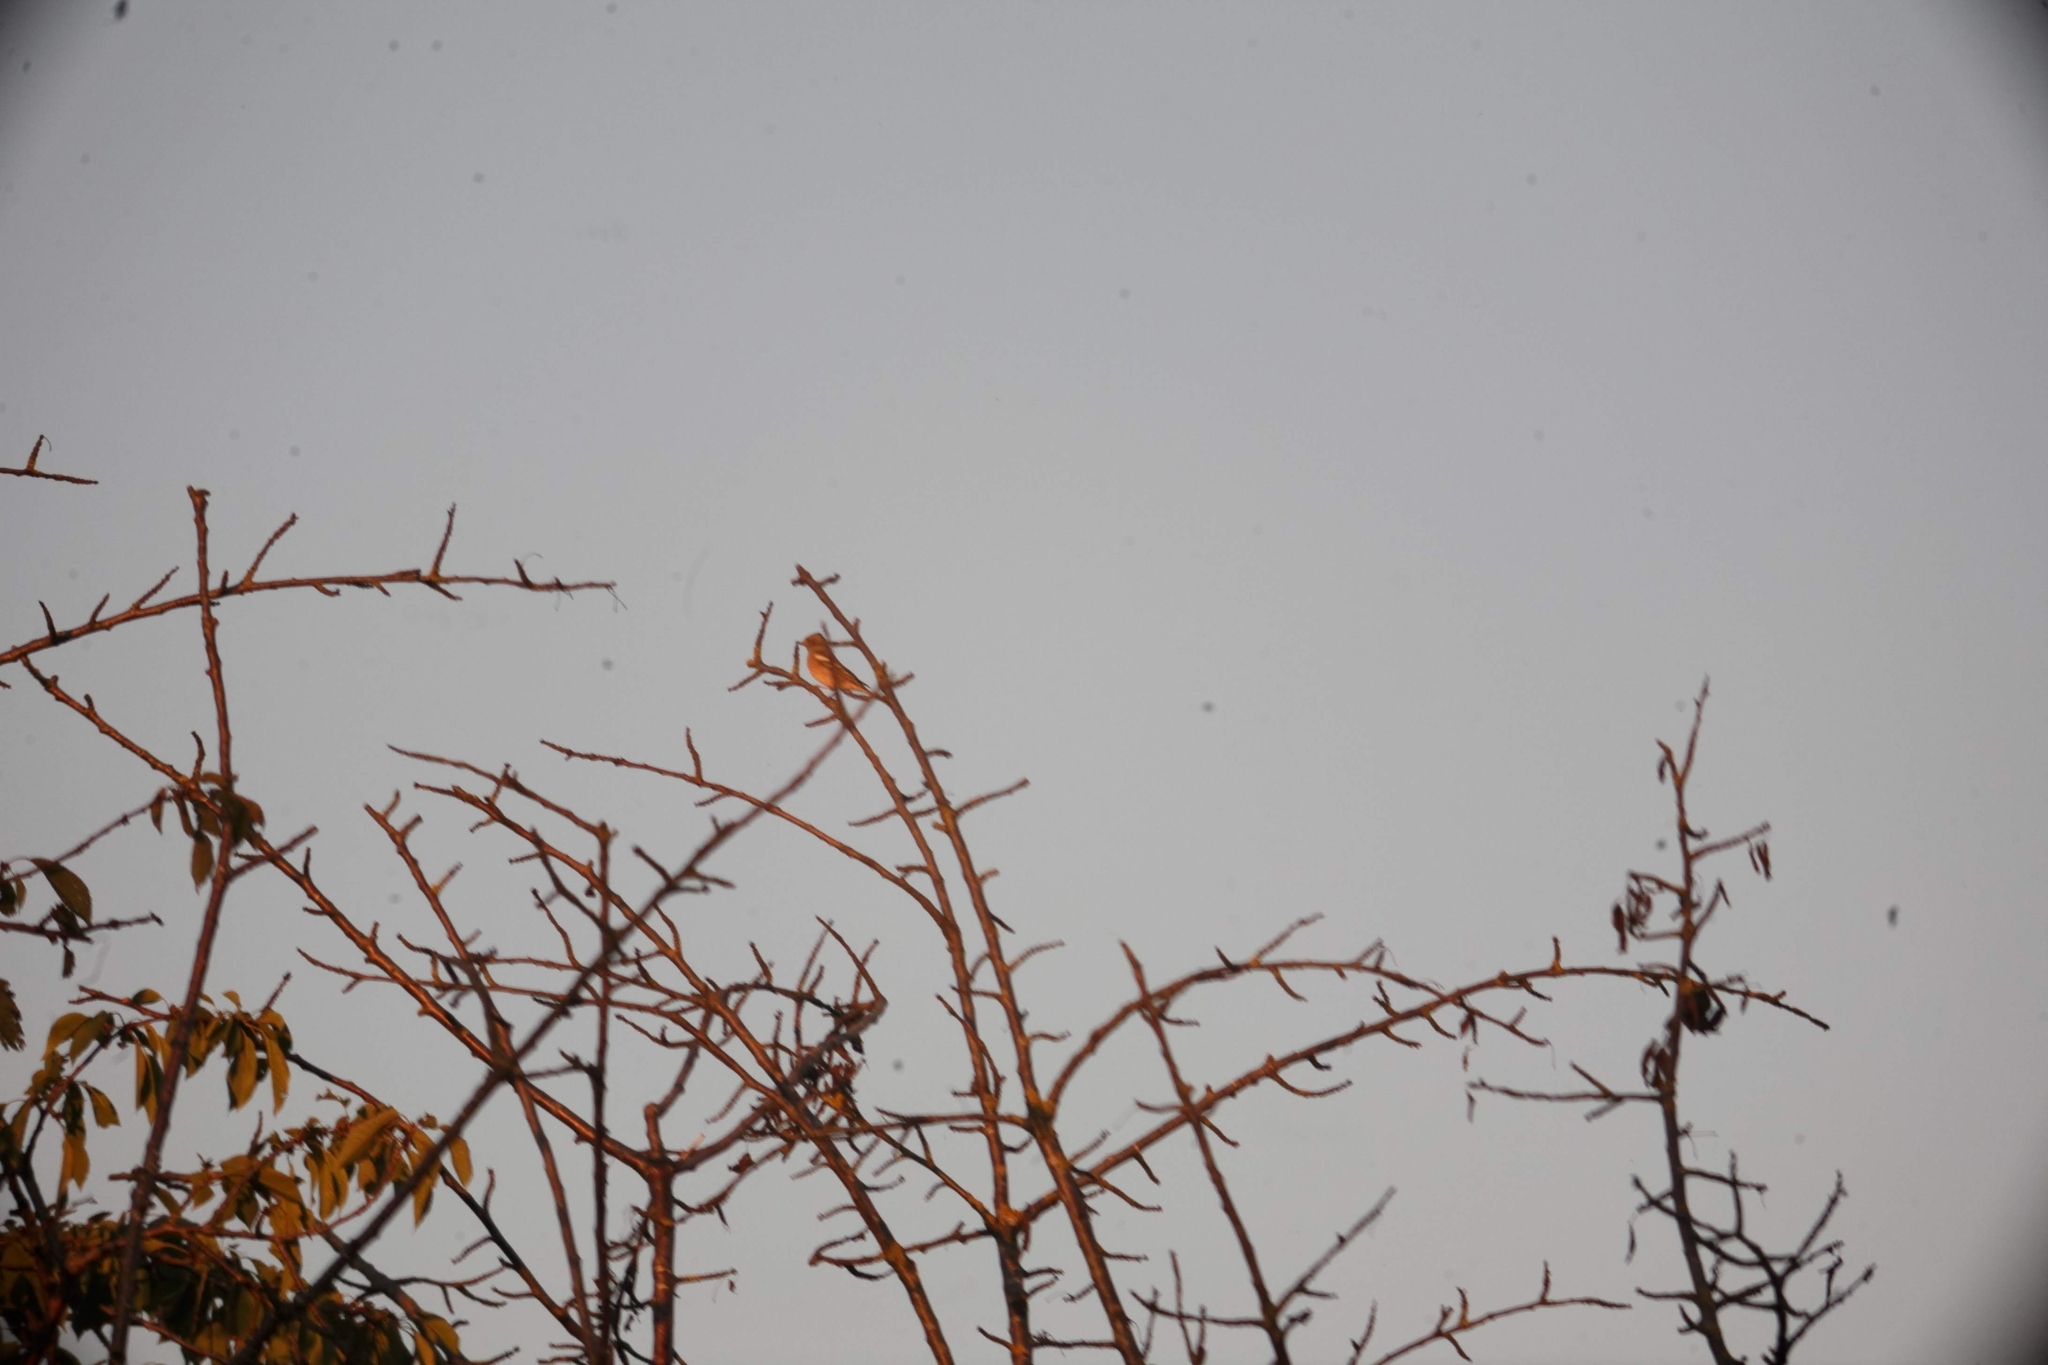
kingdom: Animalia
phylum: Chordata
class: Aves
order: Passeriformes
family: Fringillidae
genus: Fringilla
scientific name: Fringilla coelebs
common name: Common chaffinch
